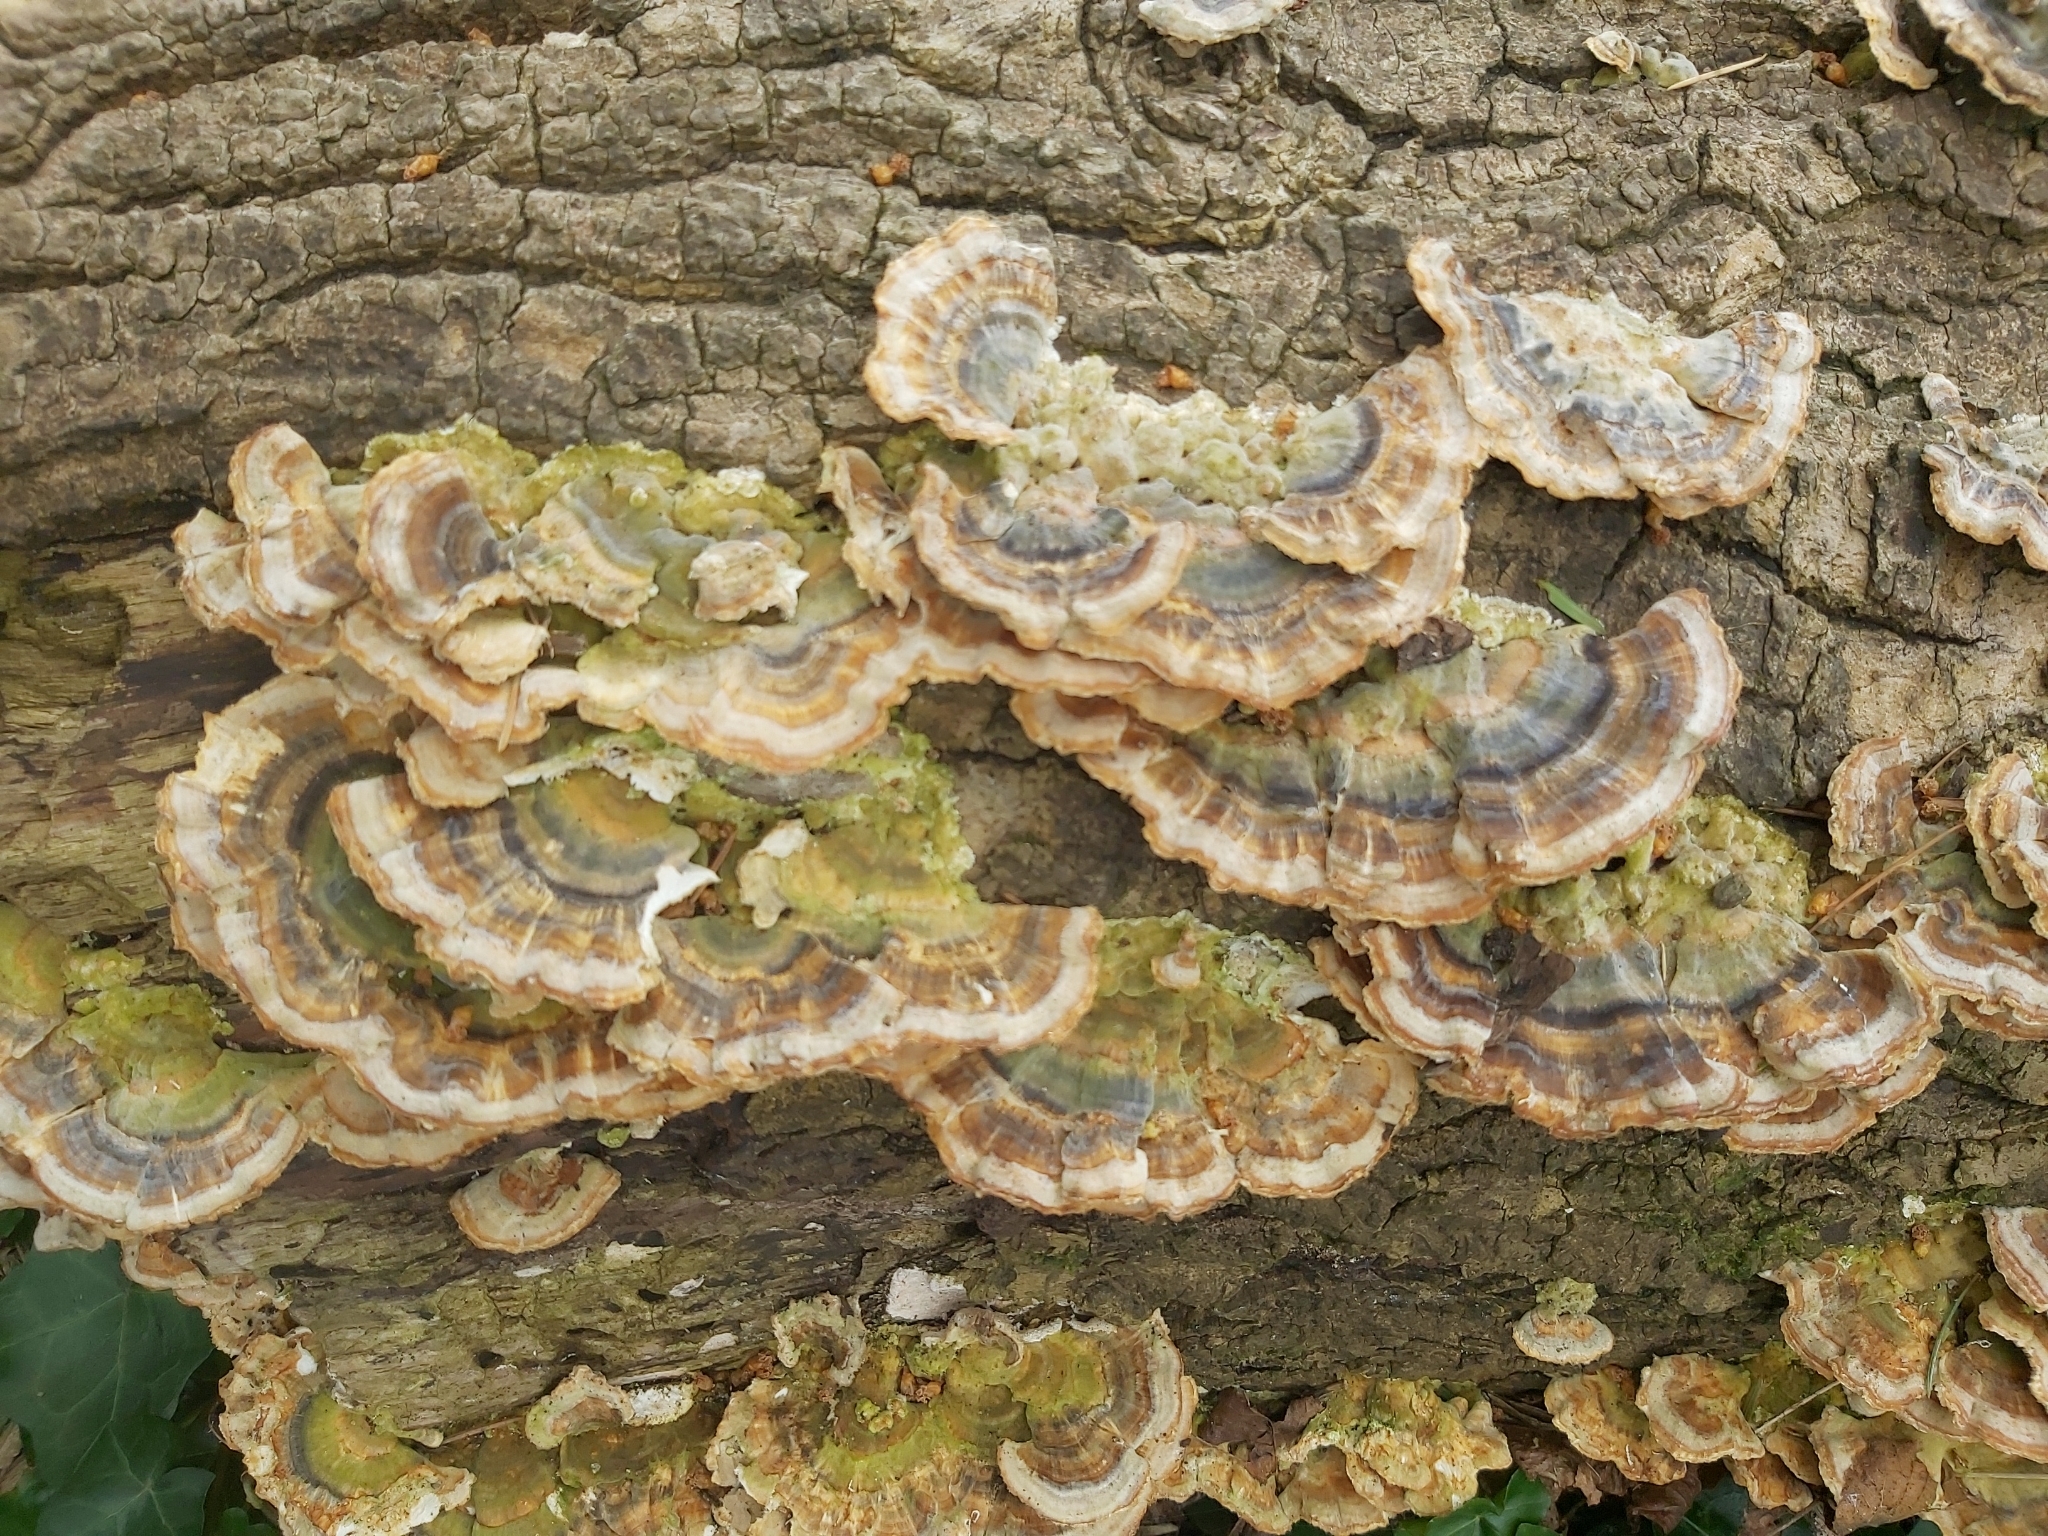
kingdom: Fungi
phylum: Basidiomycota
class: Agaricomycetes
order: Polyporales
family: Polyporaceae
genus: Trametes
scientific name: Trametes versicolor
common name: Turkeytail
